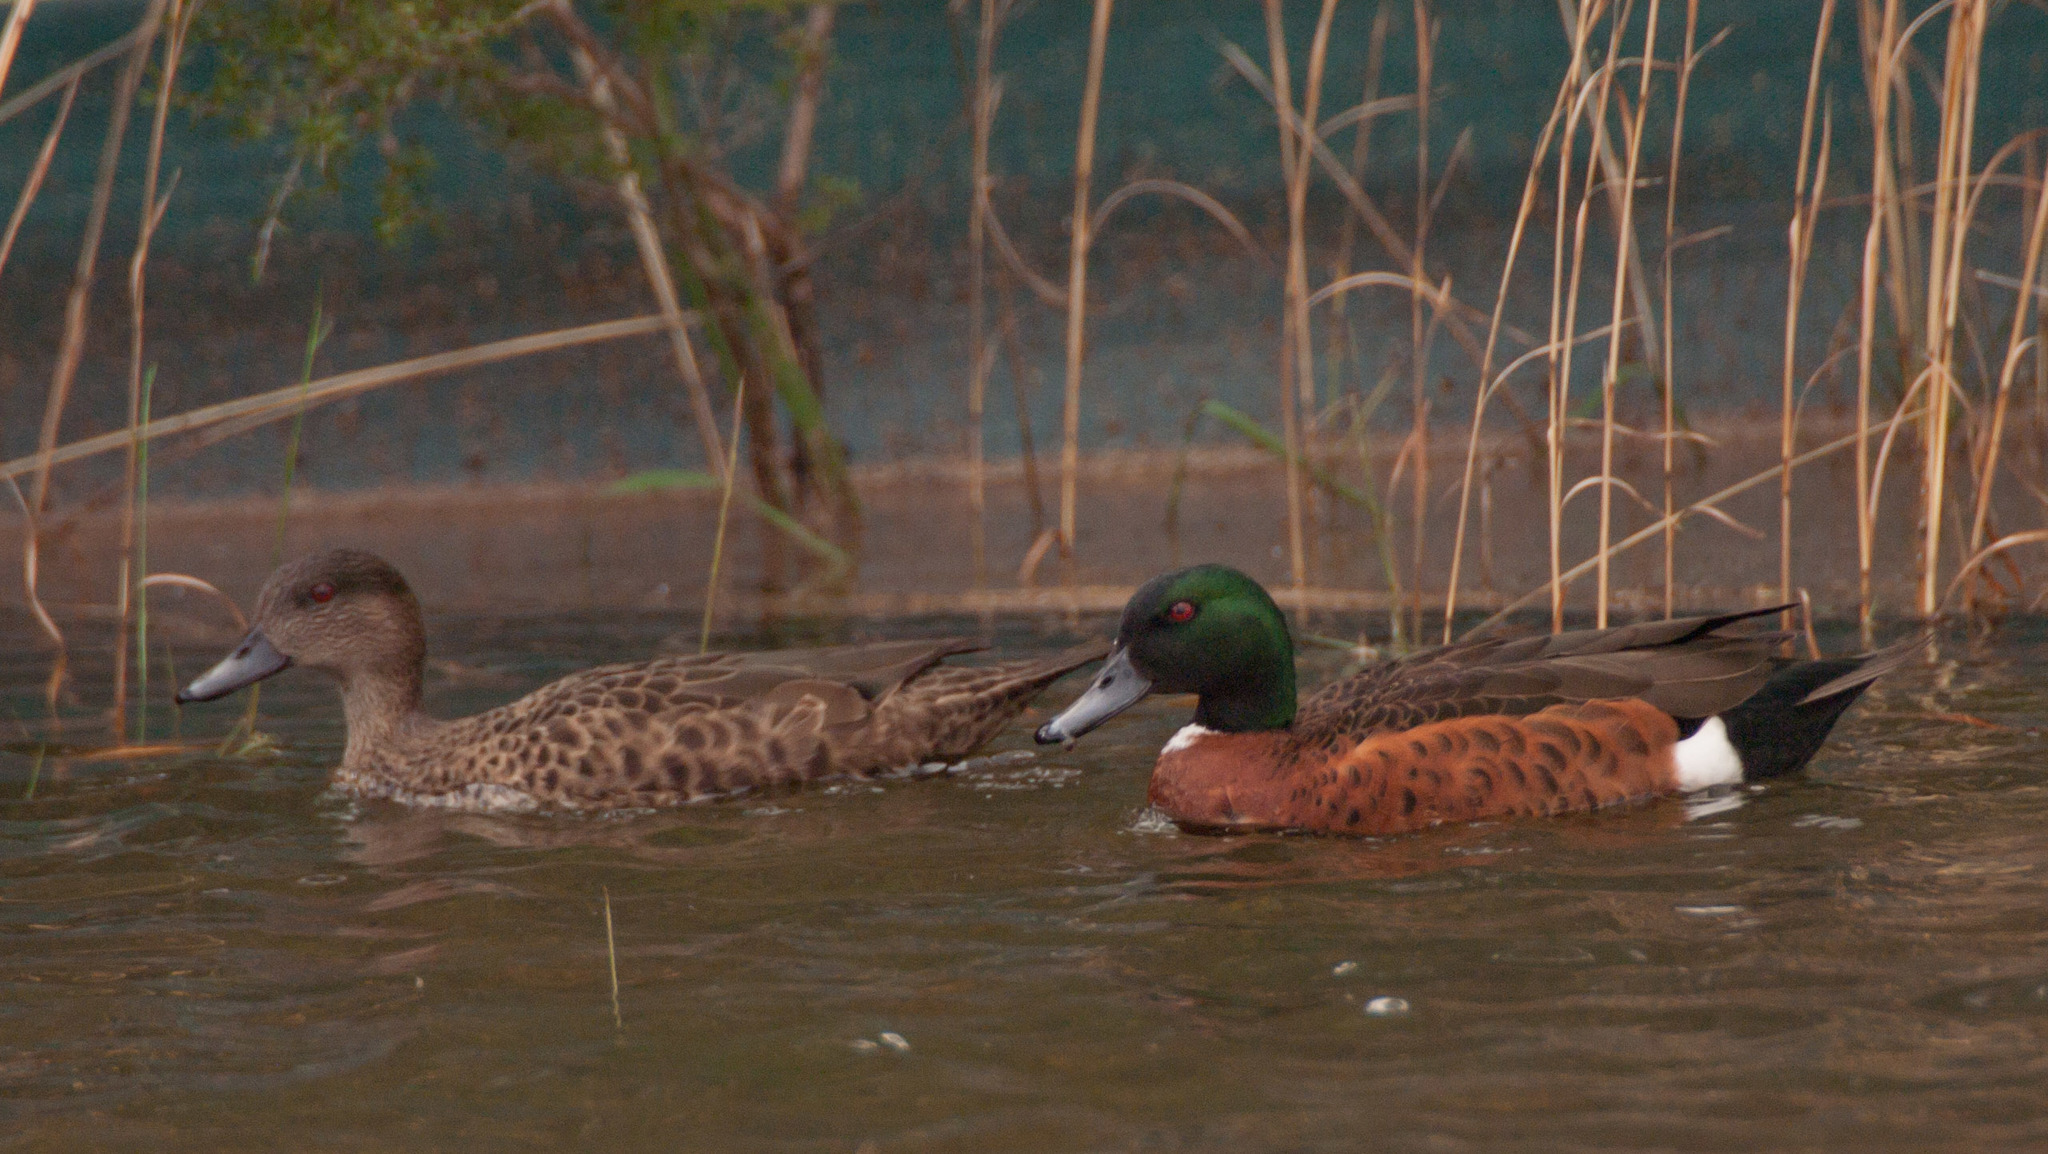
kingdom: Animalia
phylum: Chordata
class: Aves
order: Anseriformes
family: Anatidae
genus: Anas
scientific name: Anas castanea
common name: Chestnut teal
